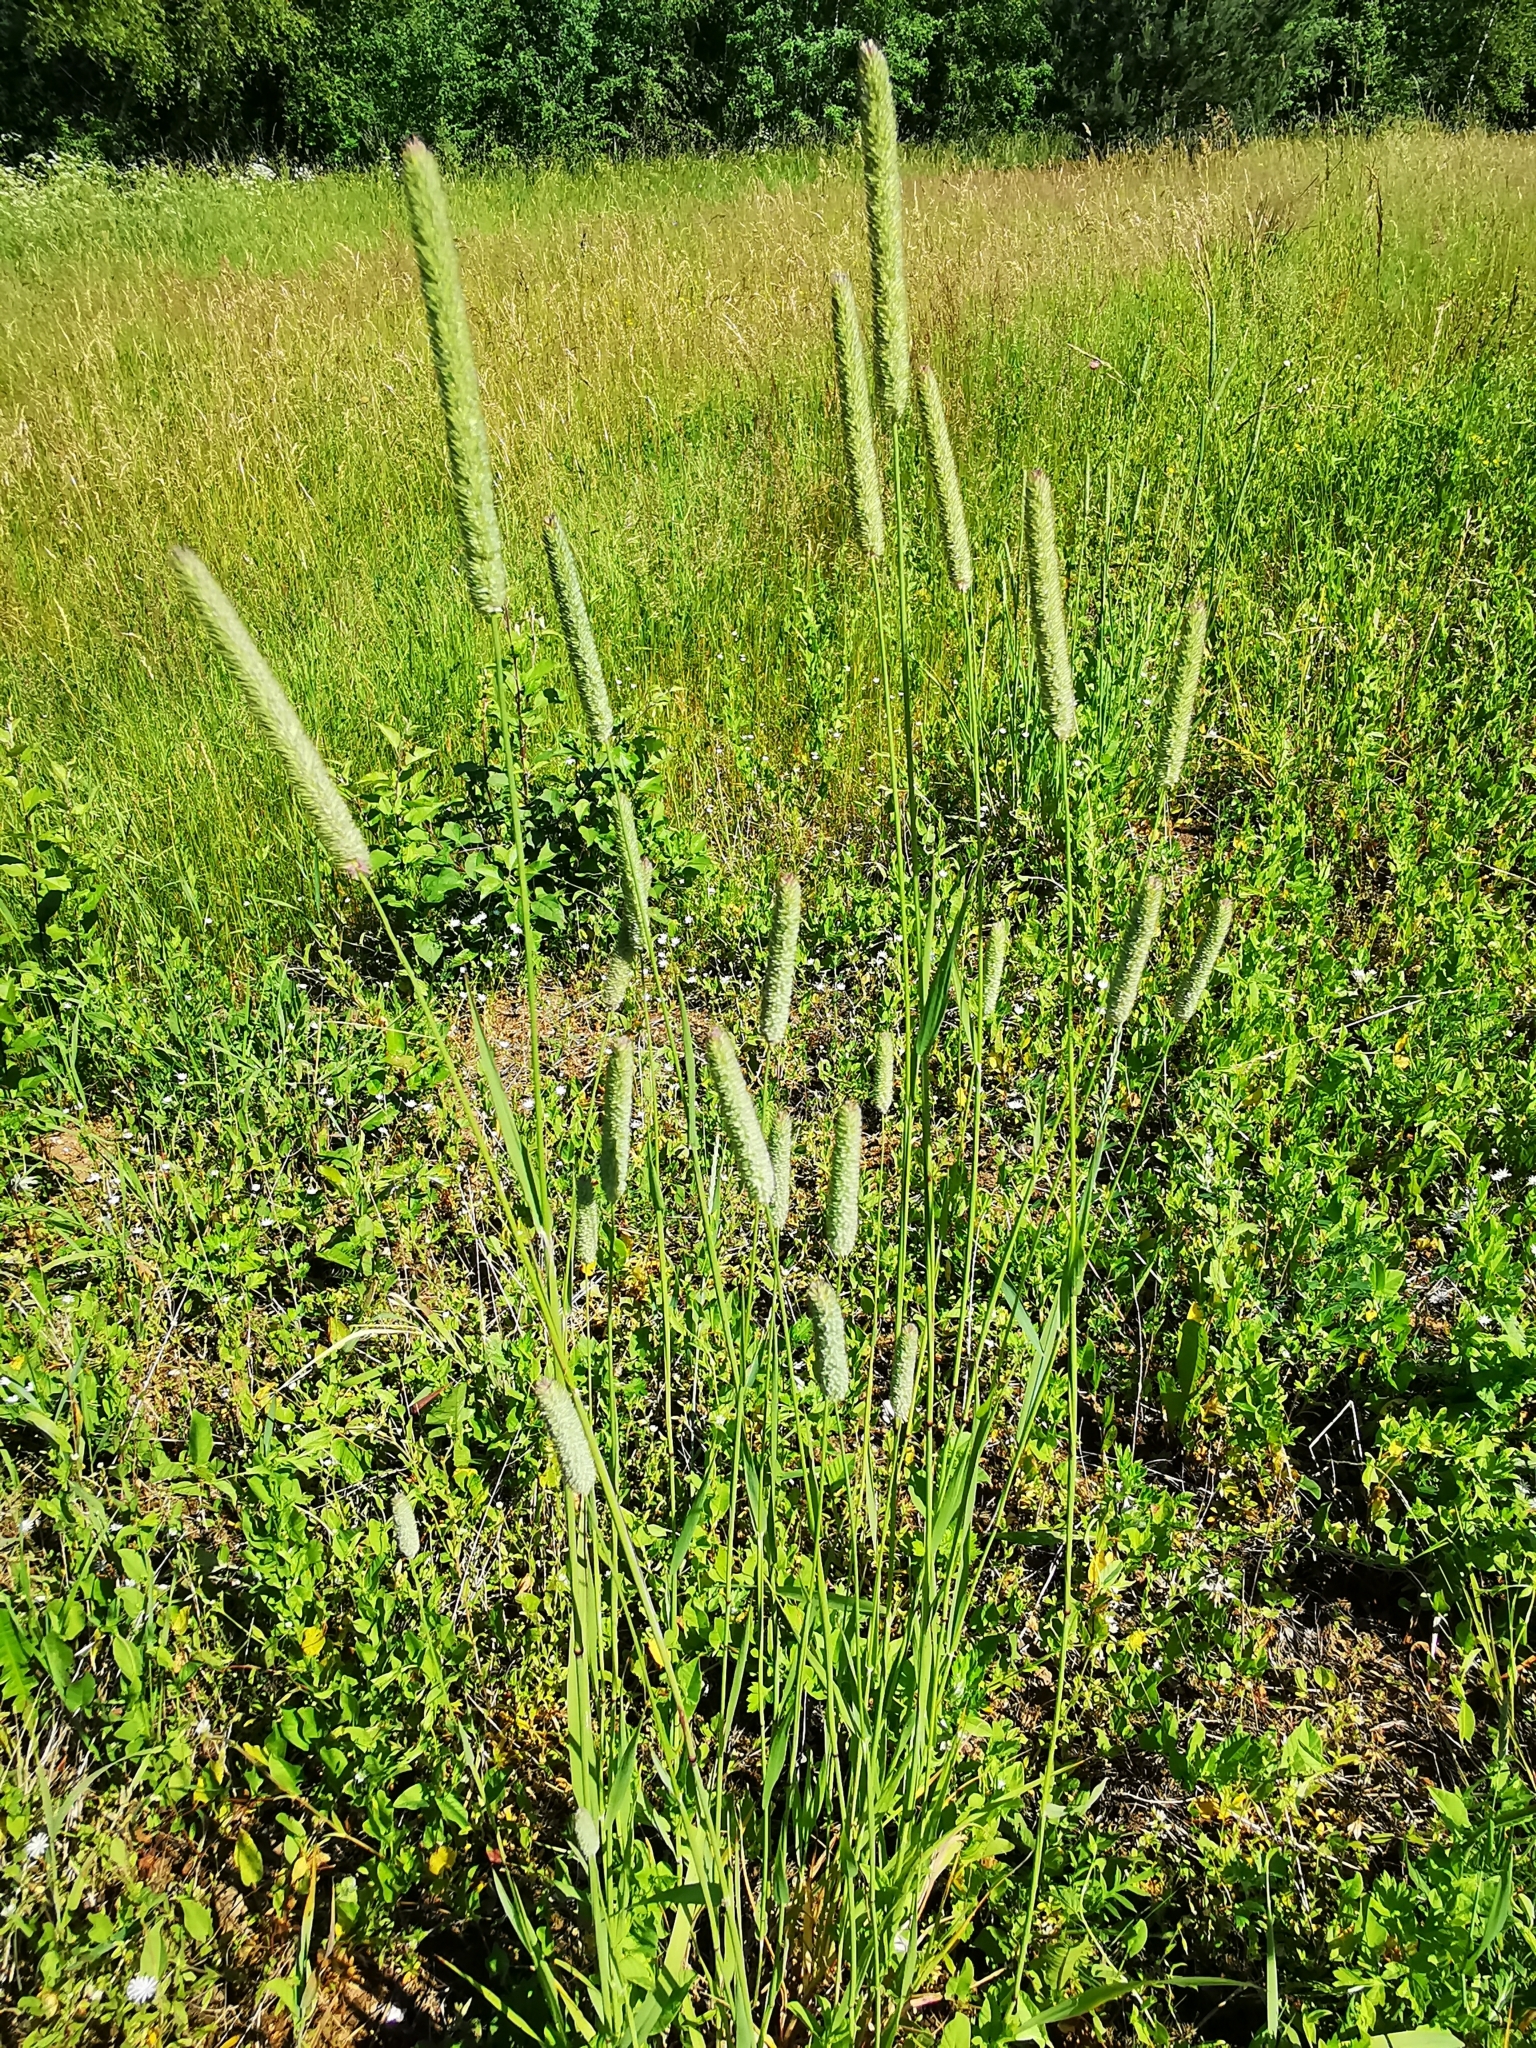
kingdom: Plantae
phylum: Tracheophyta
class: Liliopsida
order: Poales
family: Poaceae
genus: Phleum
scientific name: Phleum pratense
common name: Timothy grass
